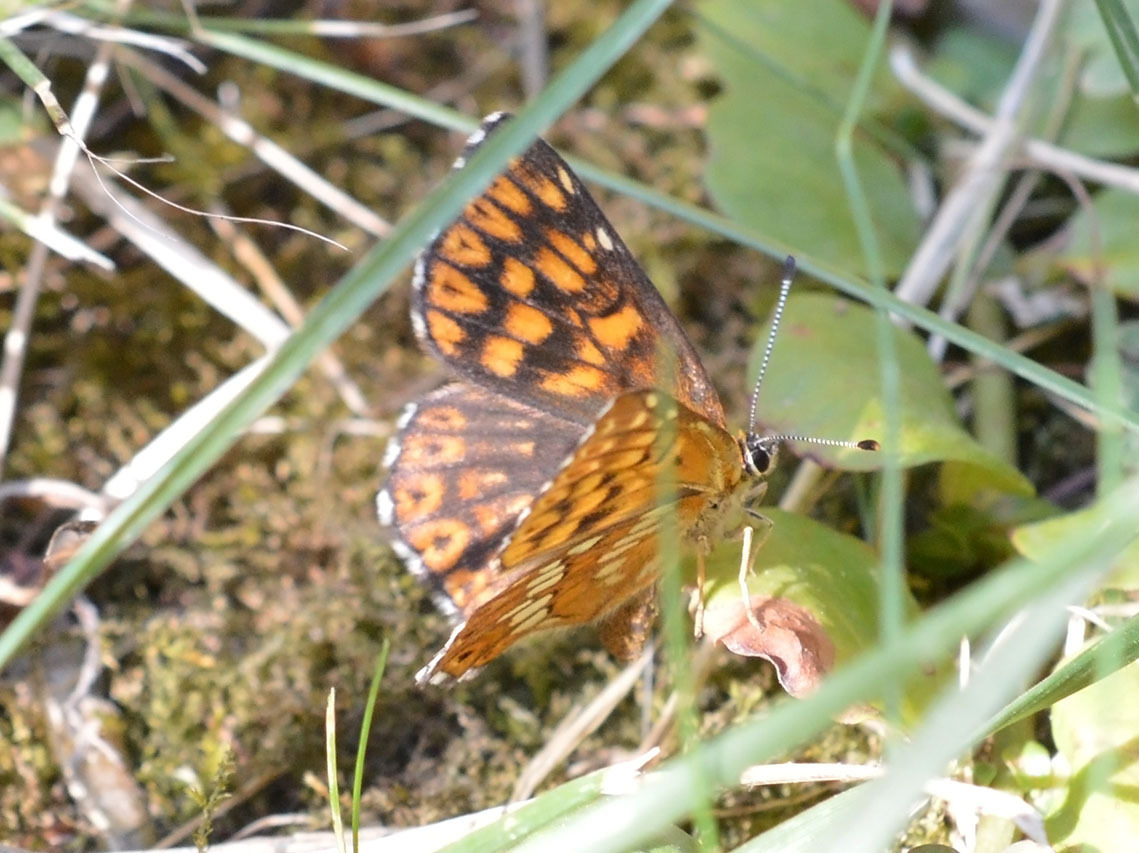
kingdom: Animalia
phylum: Arthropoda
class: Insecta
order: Lepidoptera
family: Riodinidae
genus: Hamearis
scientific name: Hamearis lucina
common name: Duke of burgundy fritillary
